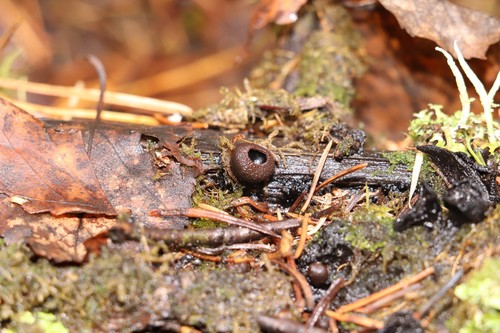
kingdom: Fungi
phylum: Ascomycota
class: Pezizomycetes
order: Pezizales
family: Sarcosomataceae
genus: Plectania
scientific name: Plectania melastoma
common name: Corona cup
